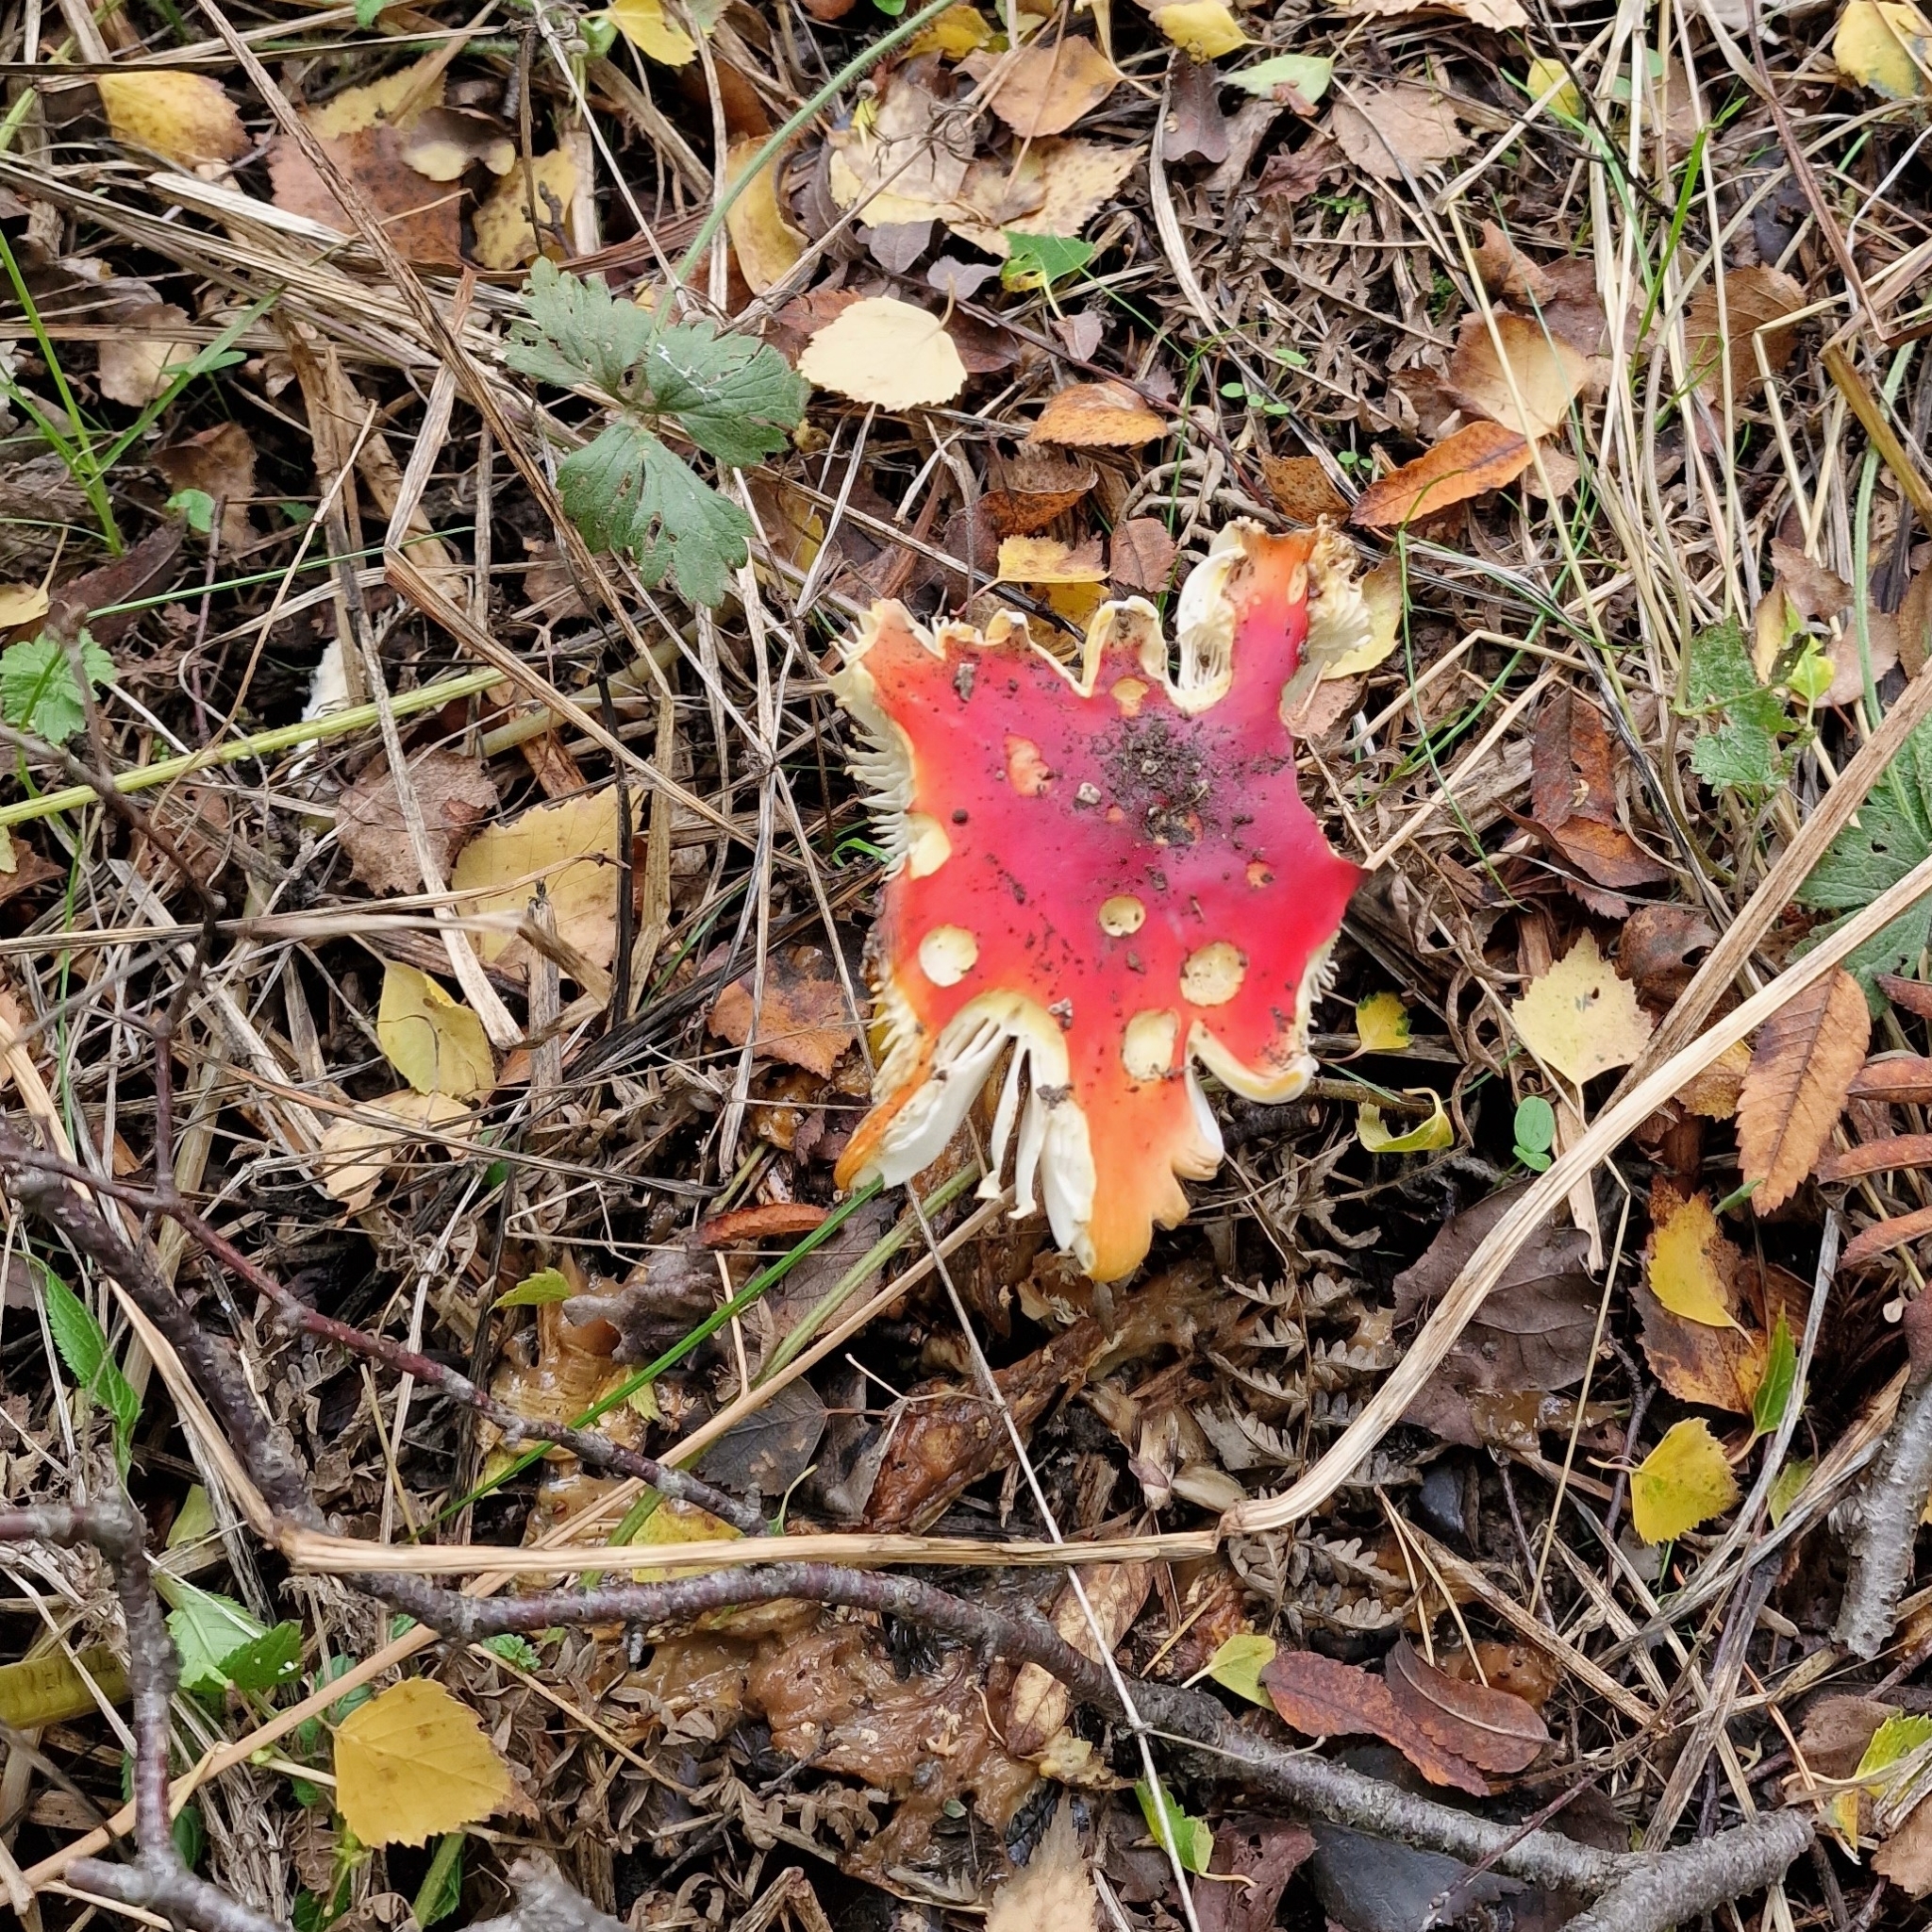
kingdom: Fungi
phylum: Basidiomycota
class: Agaricomycetes
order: Agaricales
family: Amanitaceae
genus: Amanita
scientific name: Amanita muscaria
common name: Fly agaric
